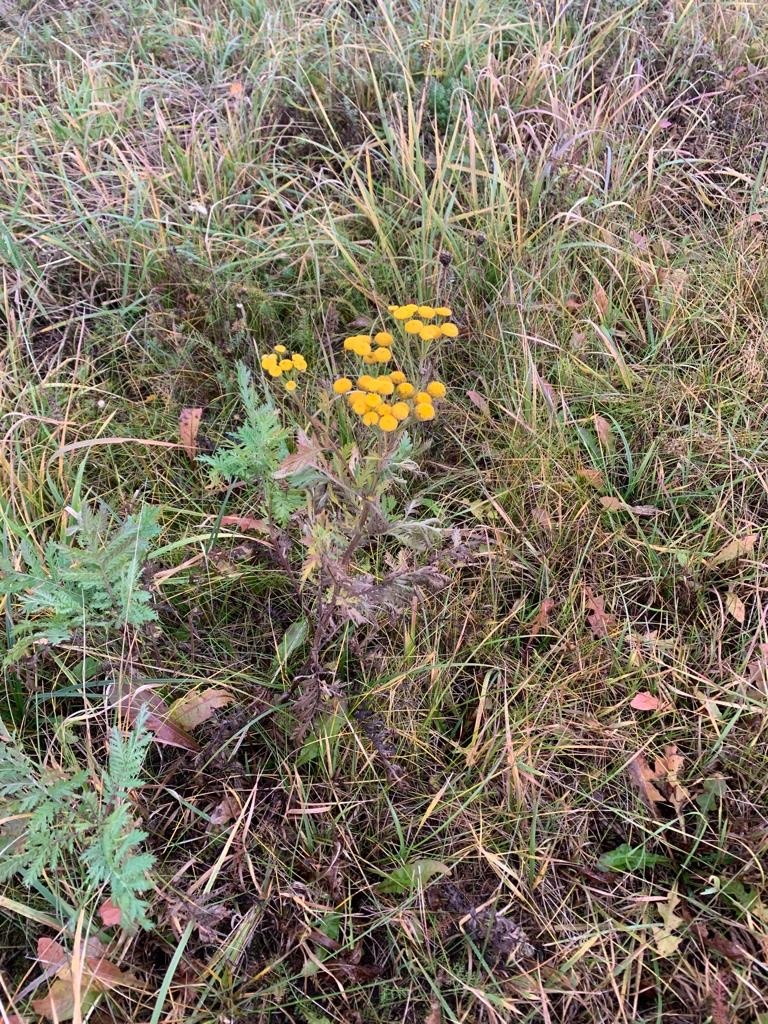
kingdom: Plantae
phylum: Tracheophyta
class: Magnoliopsida
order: Asterales
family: Asteraceae
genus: Tanacetum
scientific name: Tanacetum vulgare
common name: Common tansy
